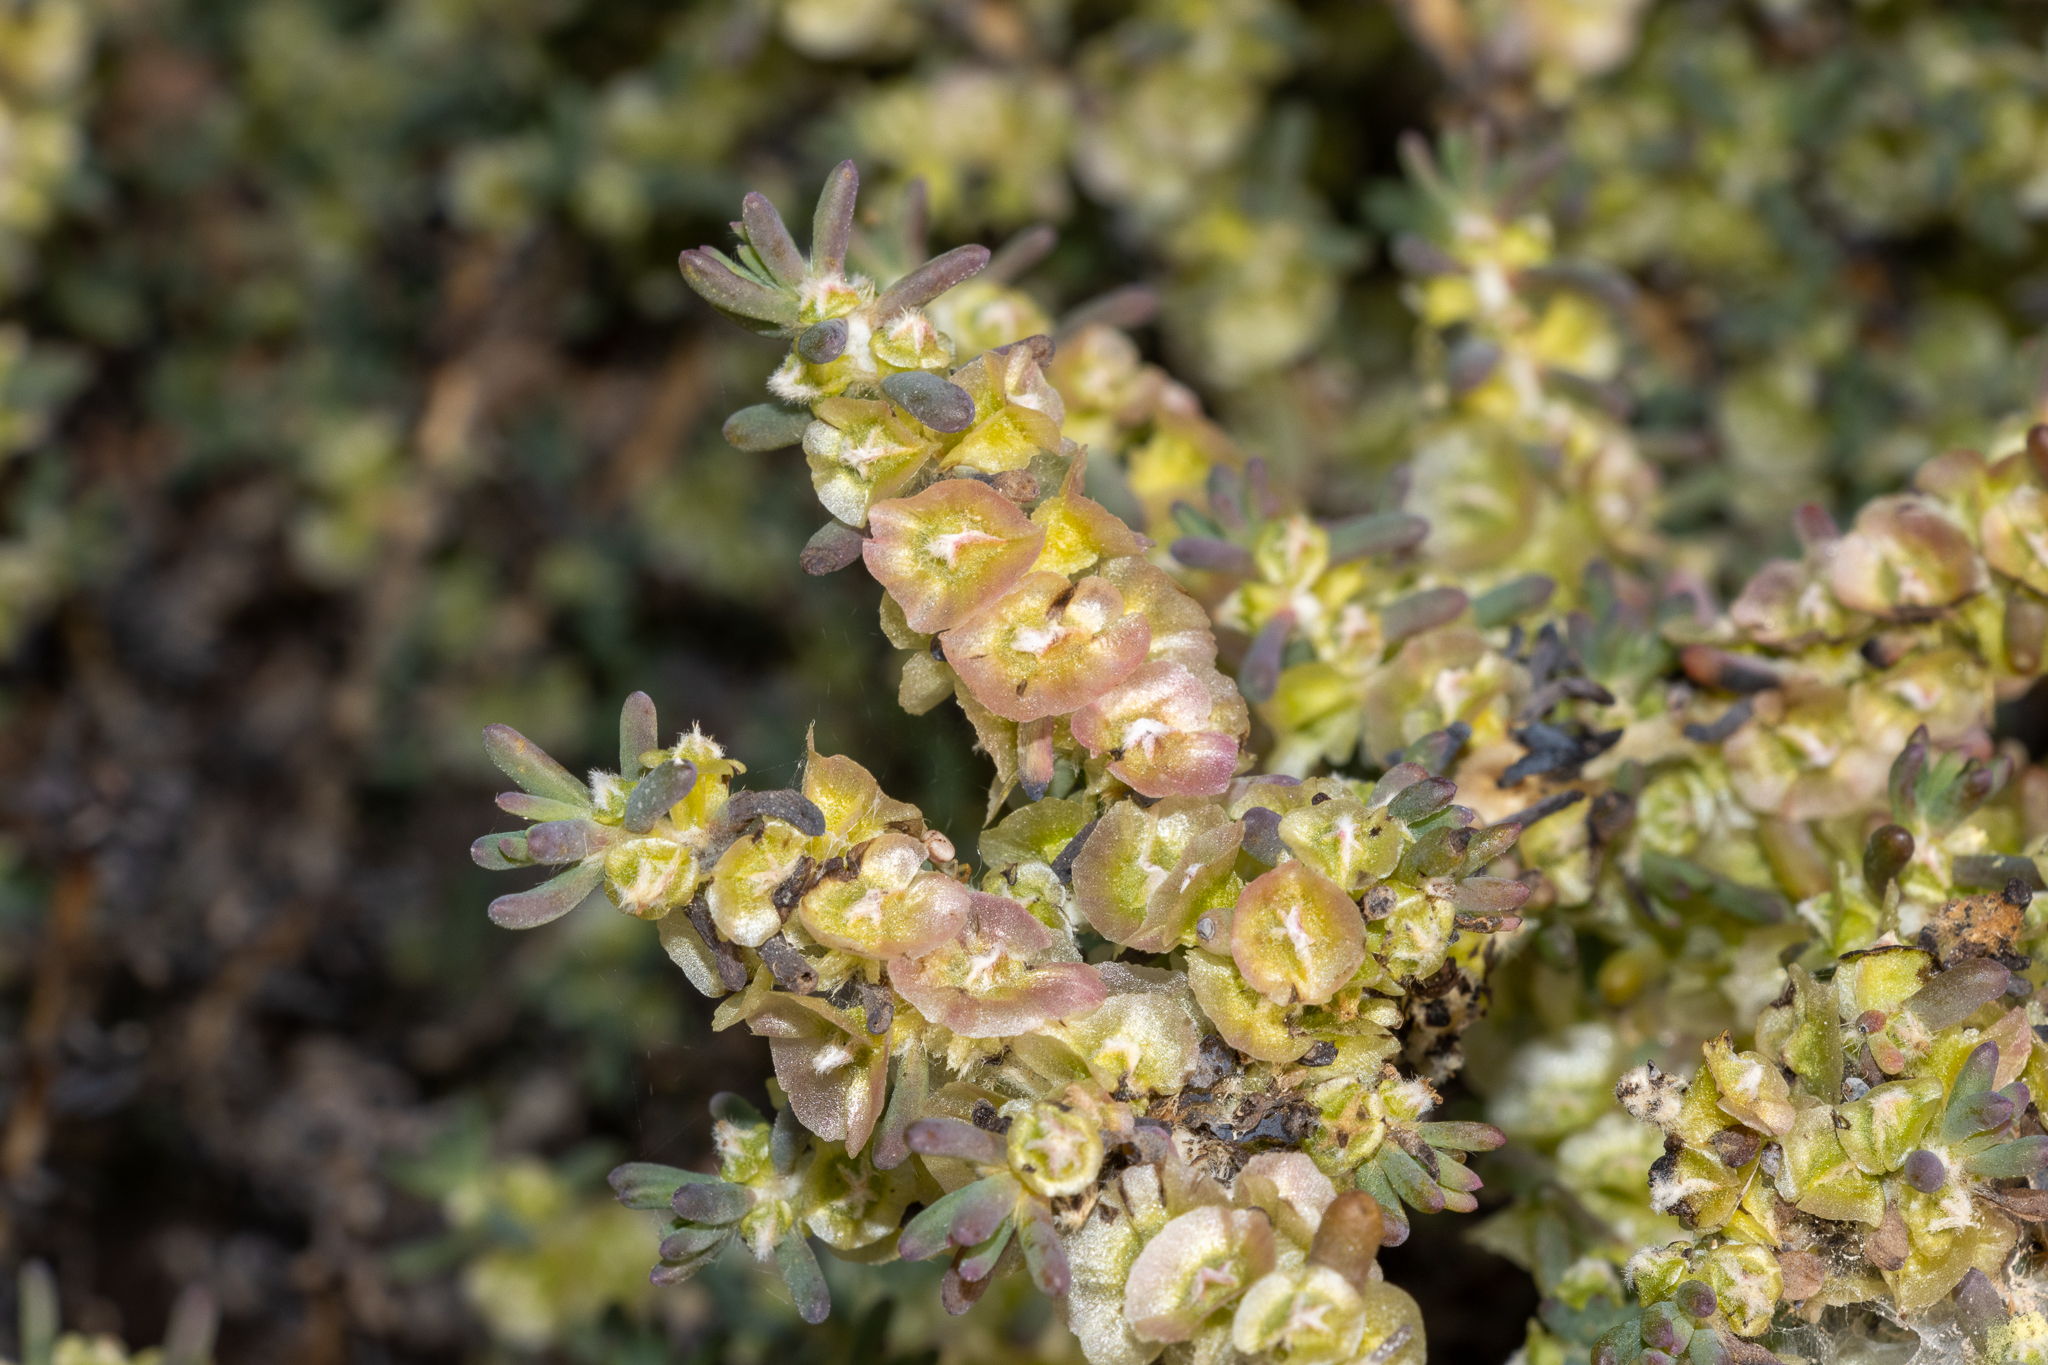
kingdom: Plantae
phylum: Tracheophyta
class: Magnoliopsida
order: Caryophyllales
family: Amaranthaceae
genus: Maireana
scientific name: Maireana pentatropis
